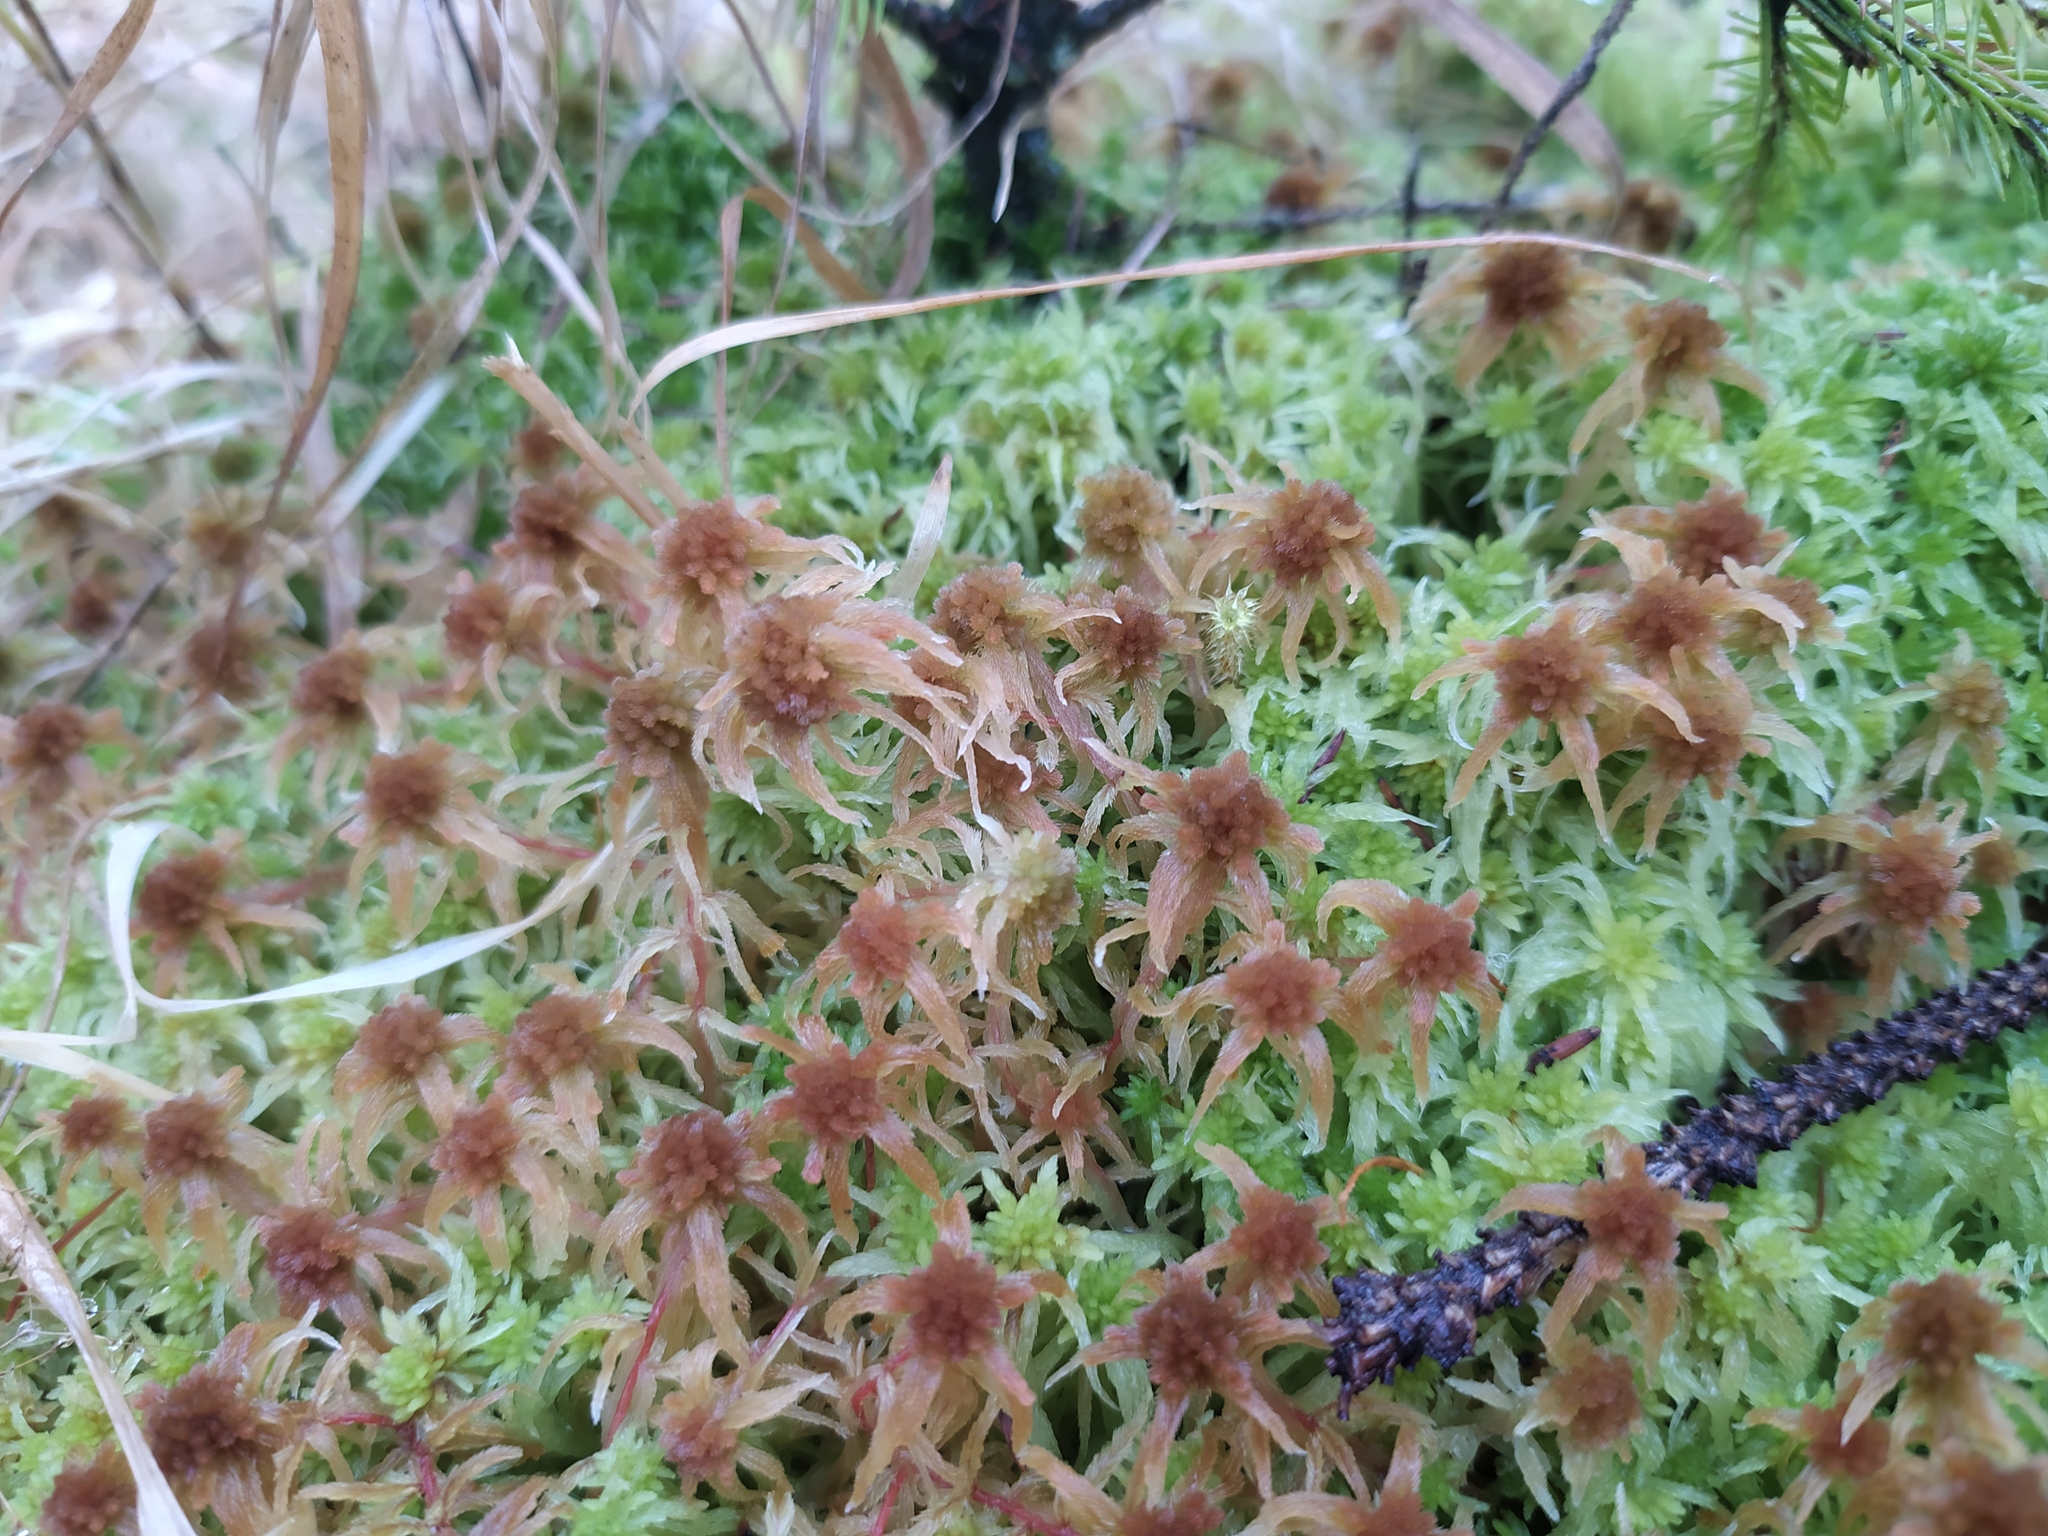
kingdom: Plantae
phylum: Bryophyta
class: Sphagnopsida
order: Sphagnales
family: Sphagnaceae
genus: Sphagnum
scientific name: Sphagnum angustifolium
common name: Narrow-leaved peat moss
